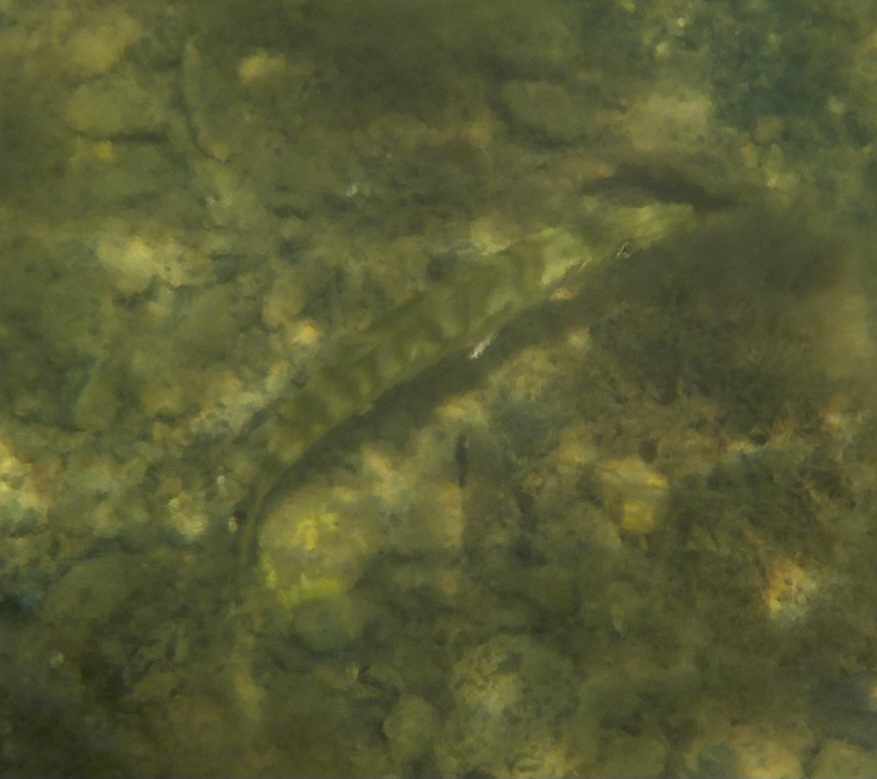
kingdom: Animalia
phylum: Chordata
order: Perciformes
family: Sphyraenidae
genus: Sphyraena
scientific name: Sphyraena barracuda
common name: Great barracuda
